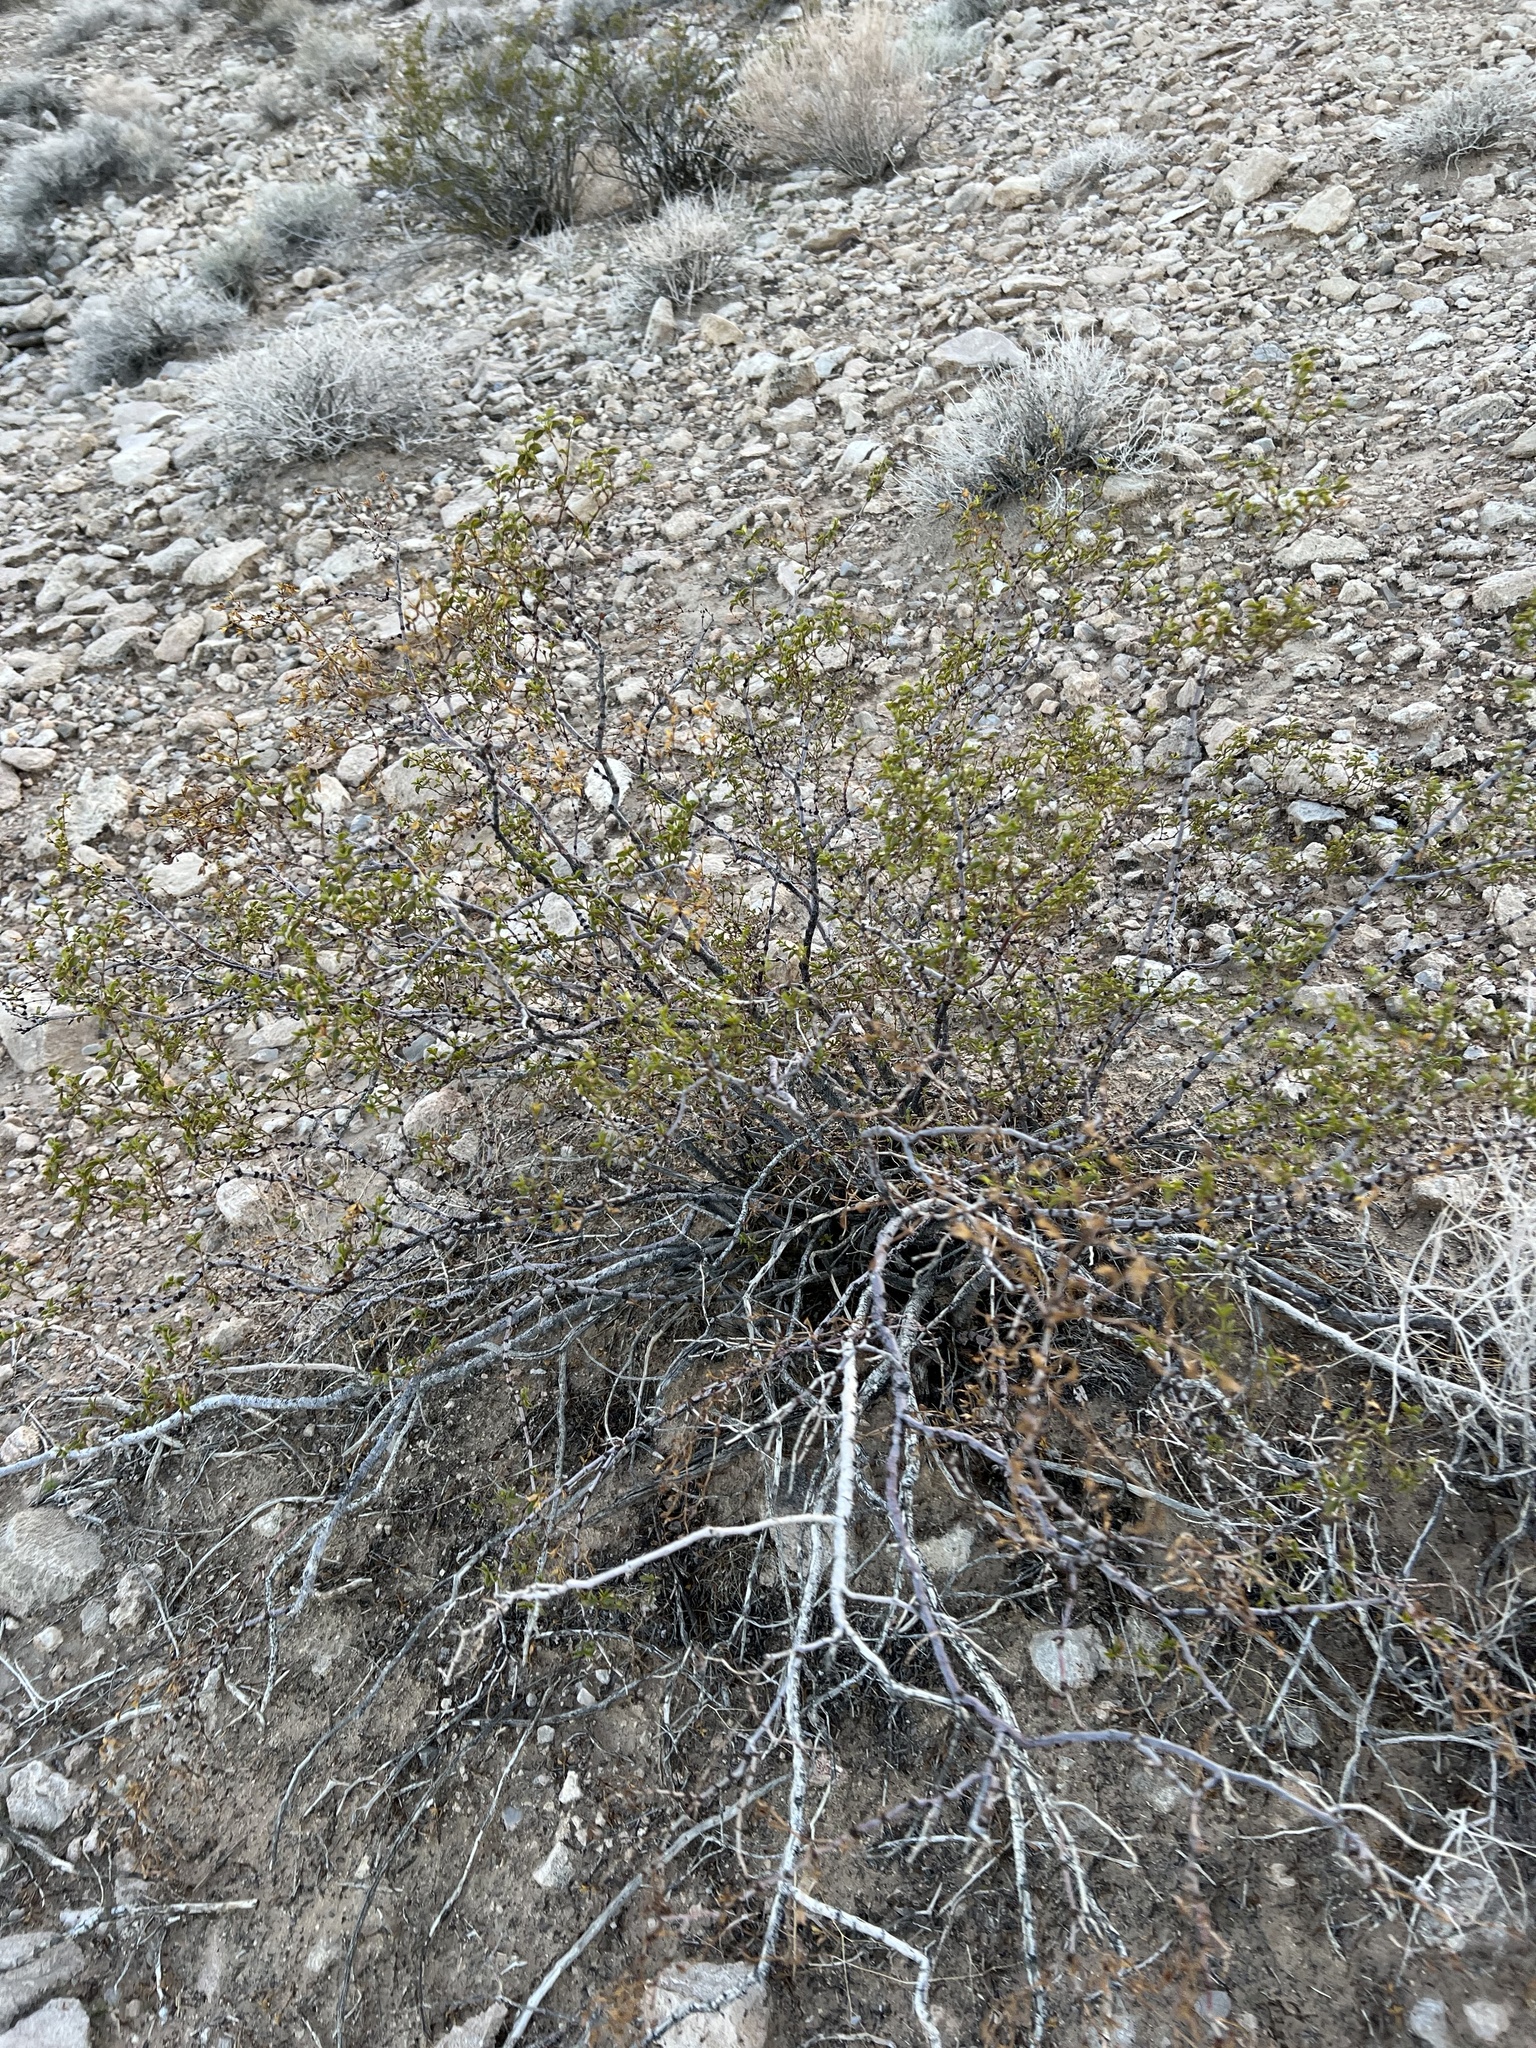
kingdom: Plantae
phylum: Tracheophyta
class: Magnoliopsida
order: Zygophyllales
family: Zygophyllaceae
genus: Larrea
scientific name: Larrea tridentata
